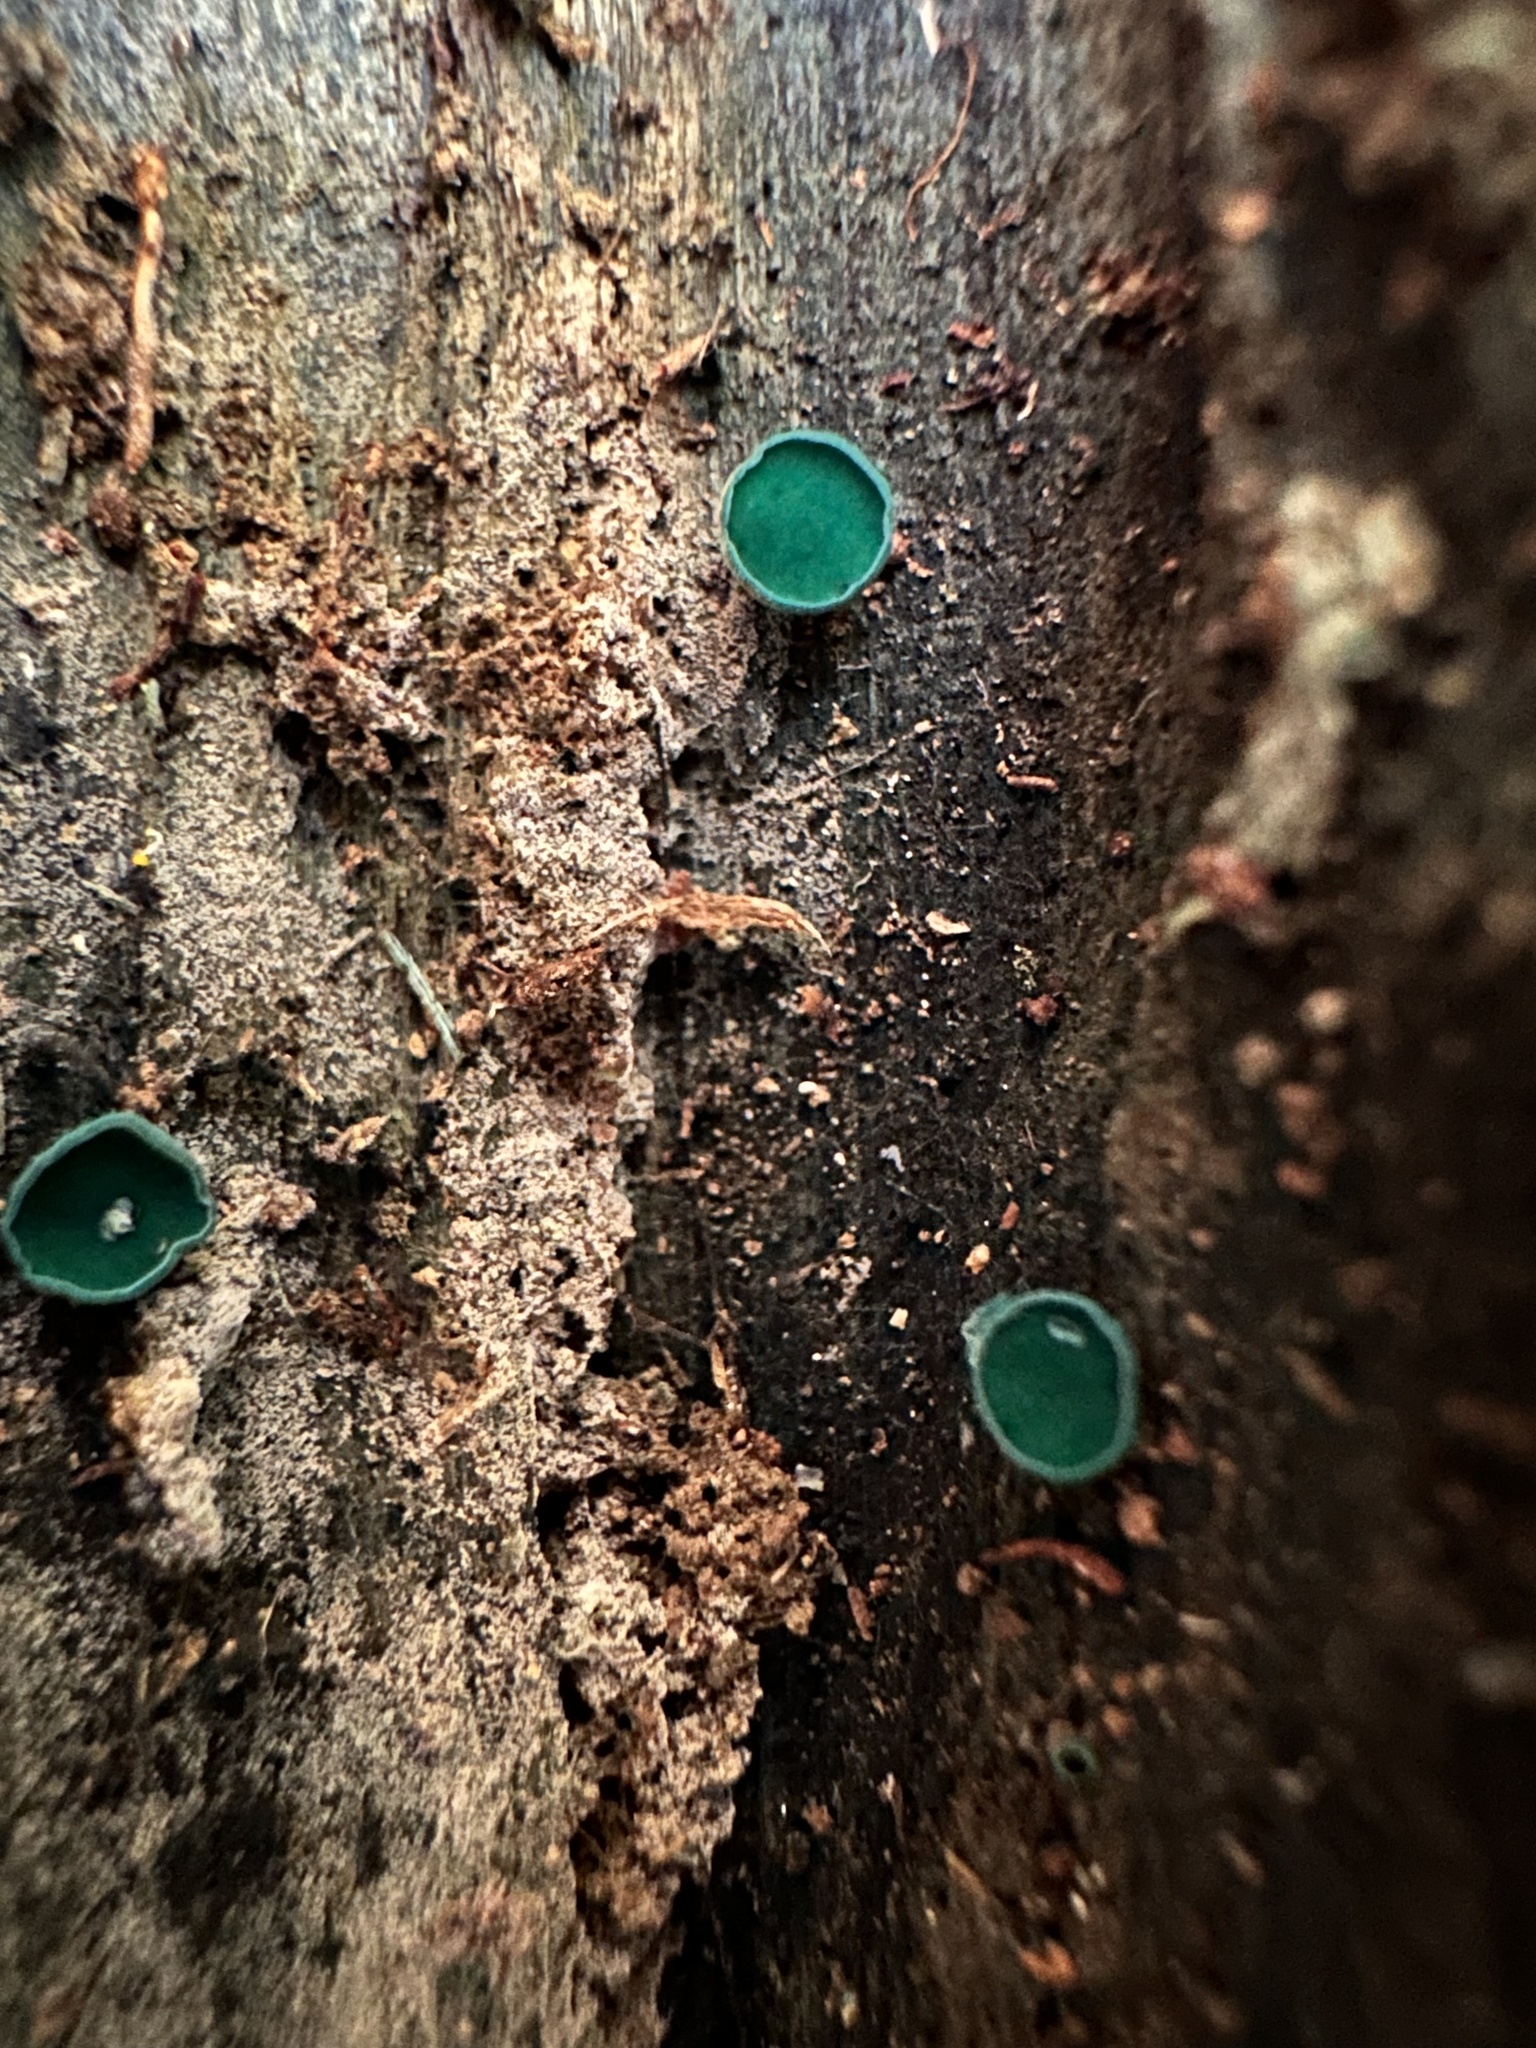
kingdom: Fungi
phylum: Ascomycota
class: Leotiomycetes
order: Helotiales
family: Chlorociboriaceae
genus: Chlorociboria
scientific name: Chlorociboria aeruginosa
